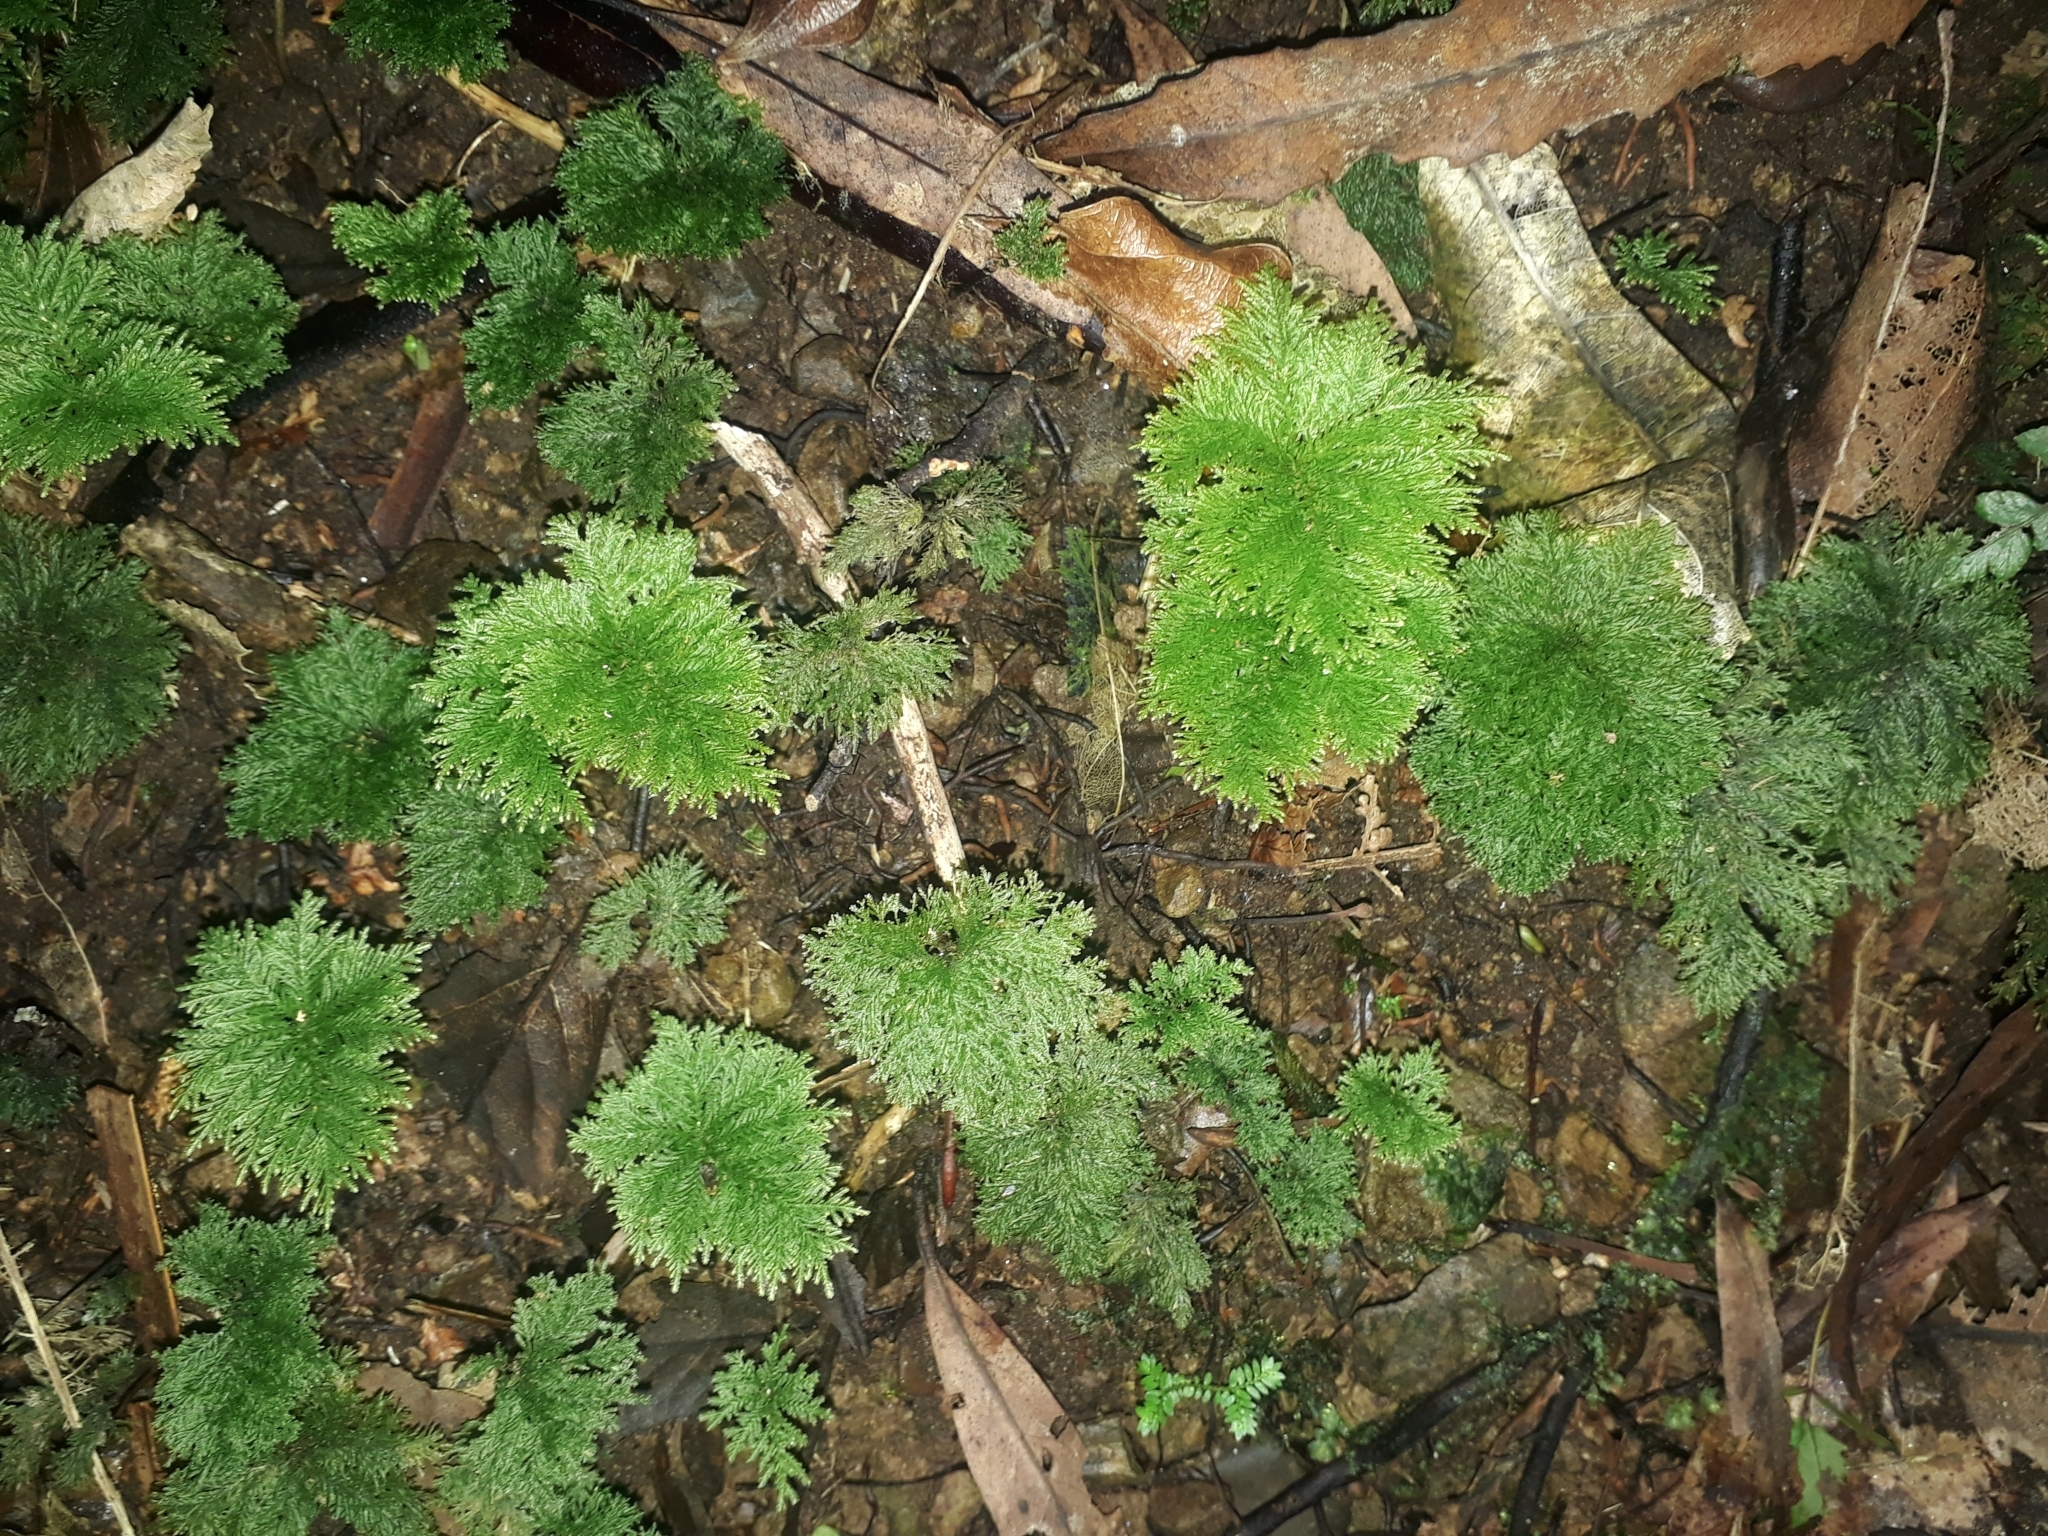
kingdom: Plantae
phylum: Bryophyta
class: Bryopsida
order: Hypopterygiales
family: Hypopterygiaceae
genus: Dendrohypopterygium
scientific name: Dendrohypopterygium filiculiforme
